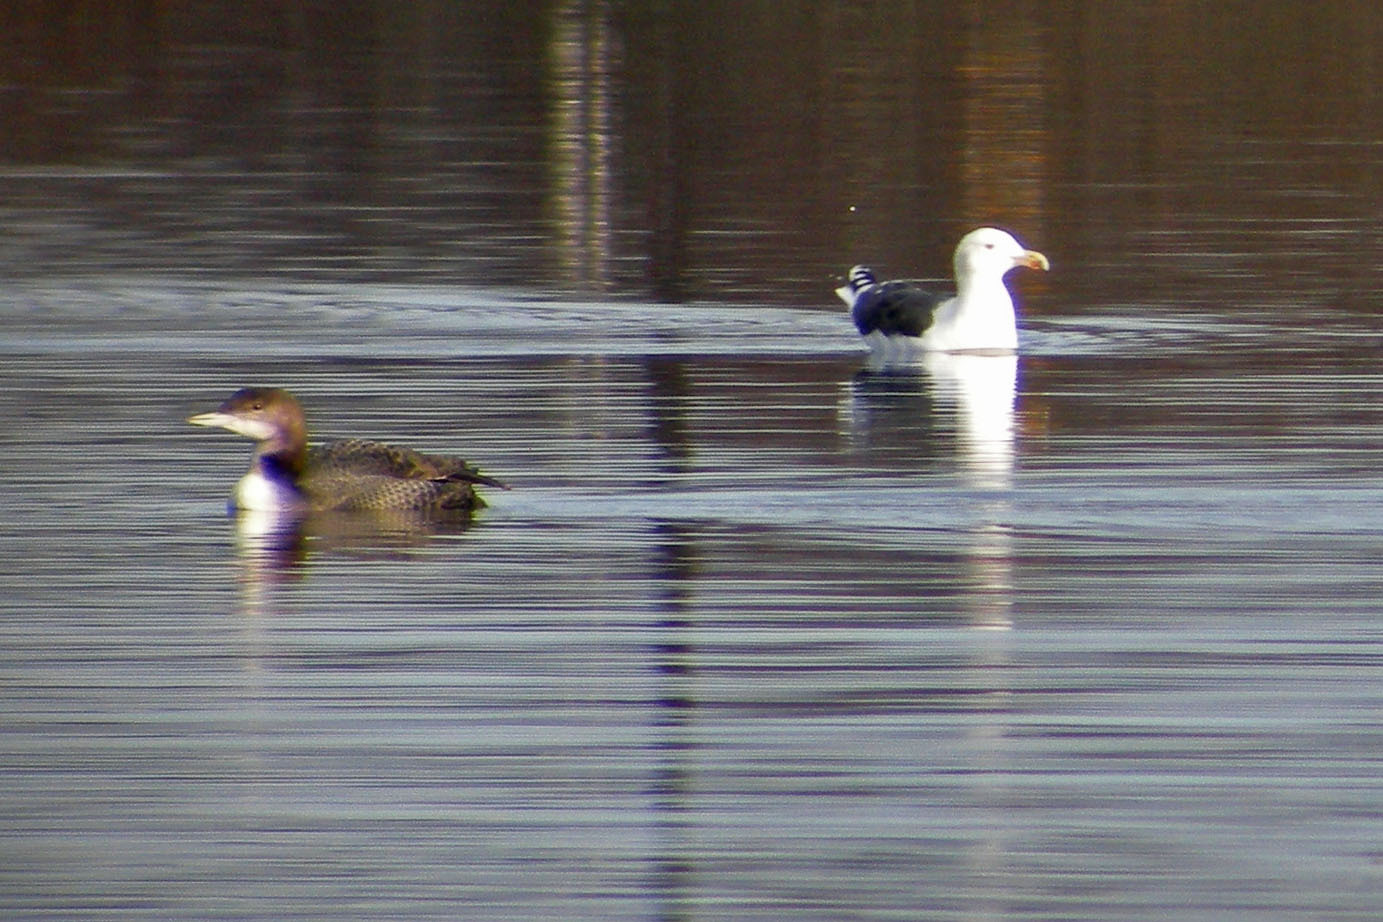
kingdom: Animalia
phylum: Chordata
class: Aves
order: Gaviiformes
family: Gaviidae
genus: Gavia
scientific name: Gavia immer
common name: Common loon
